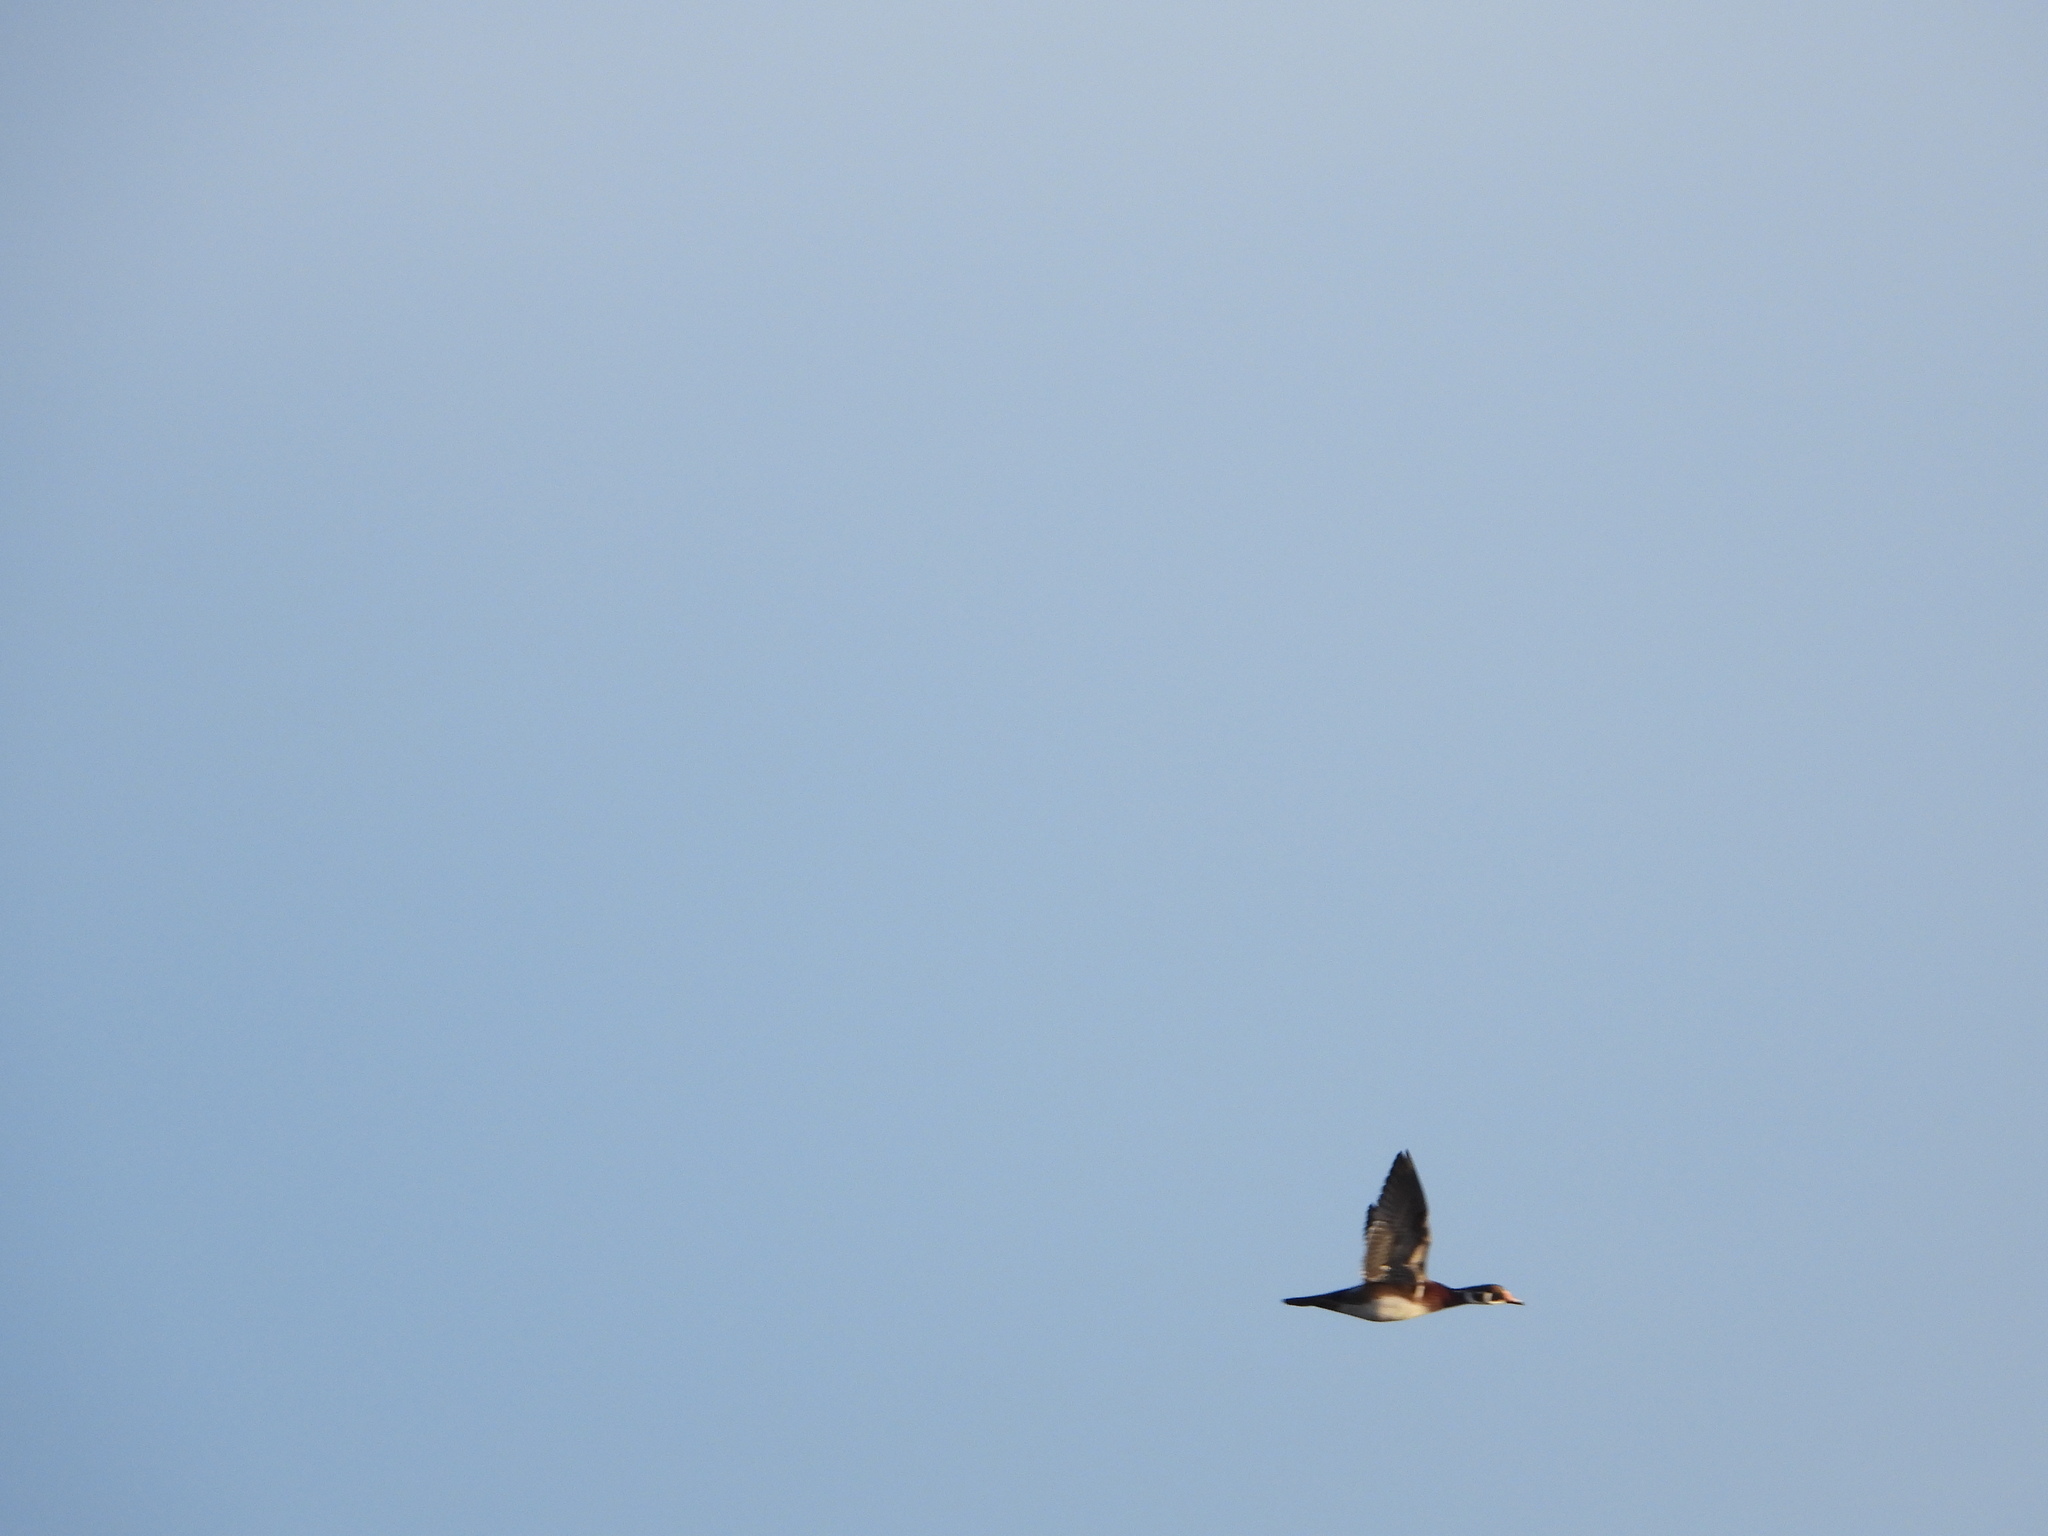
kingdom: Animalia
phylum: Chordata
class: Aves
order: Anseriformes
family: Anatidae
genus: Aix
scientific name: Aix sponsa
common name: Wood duck
